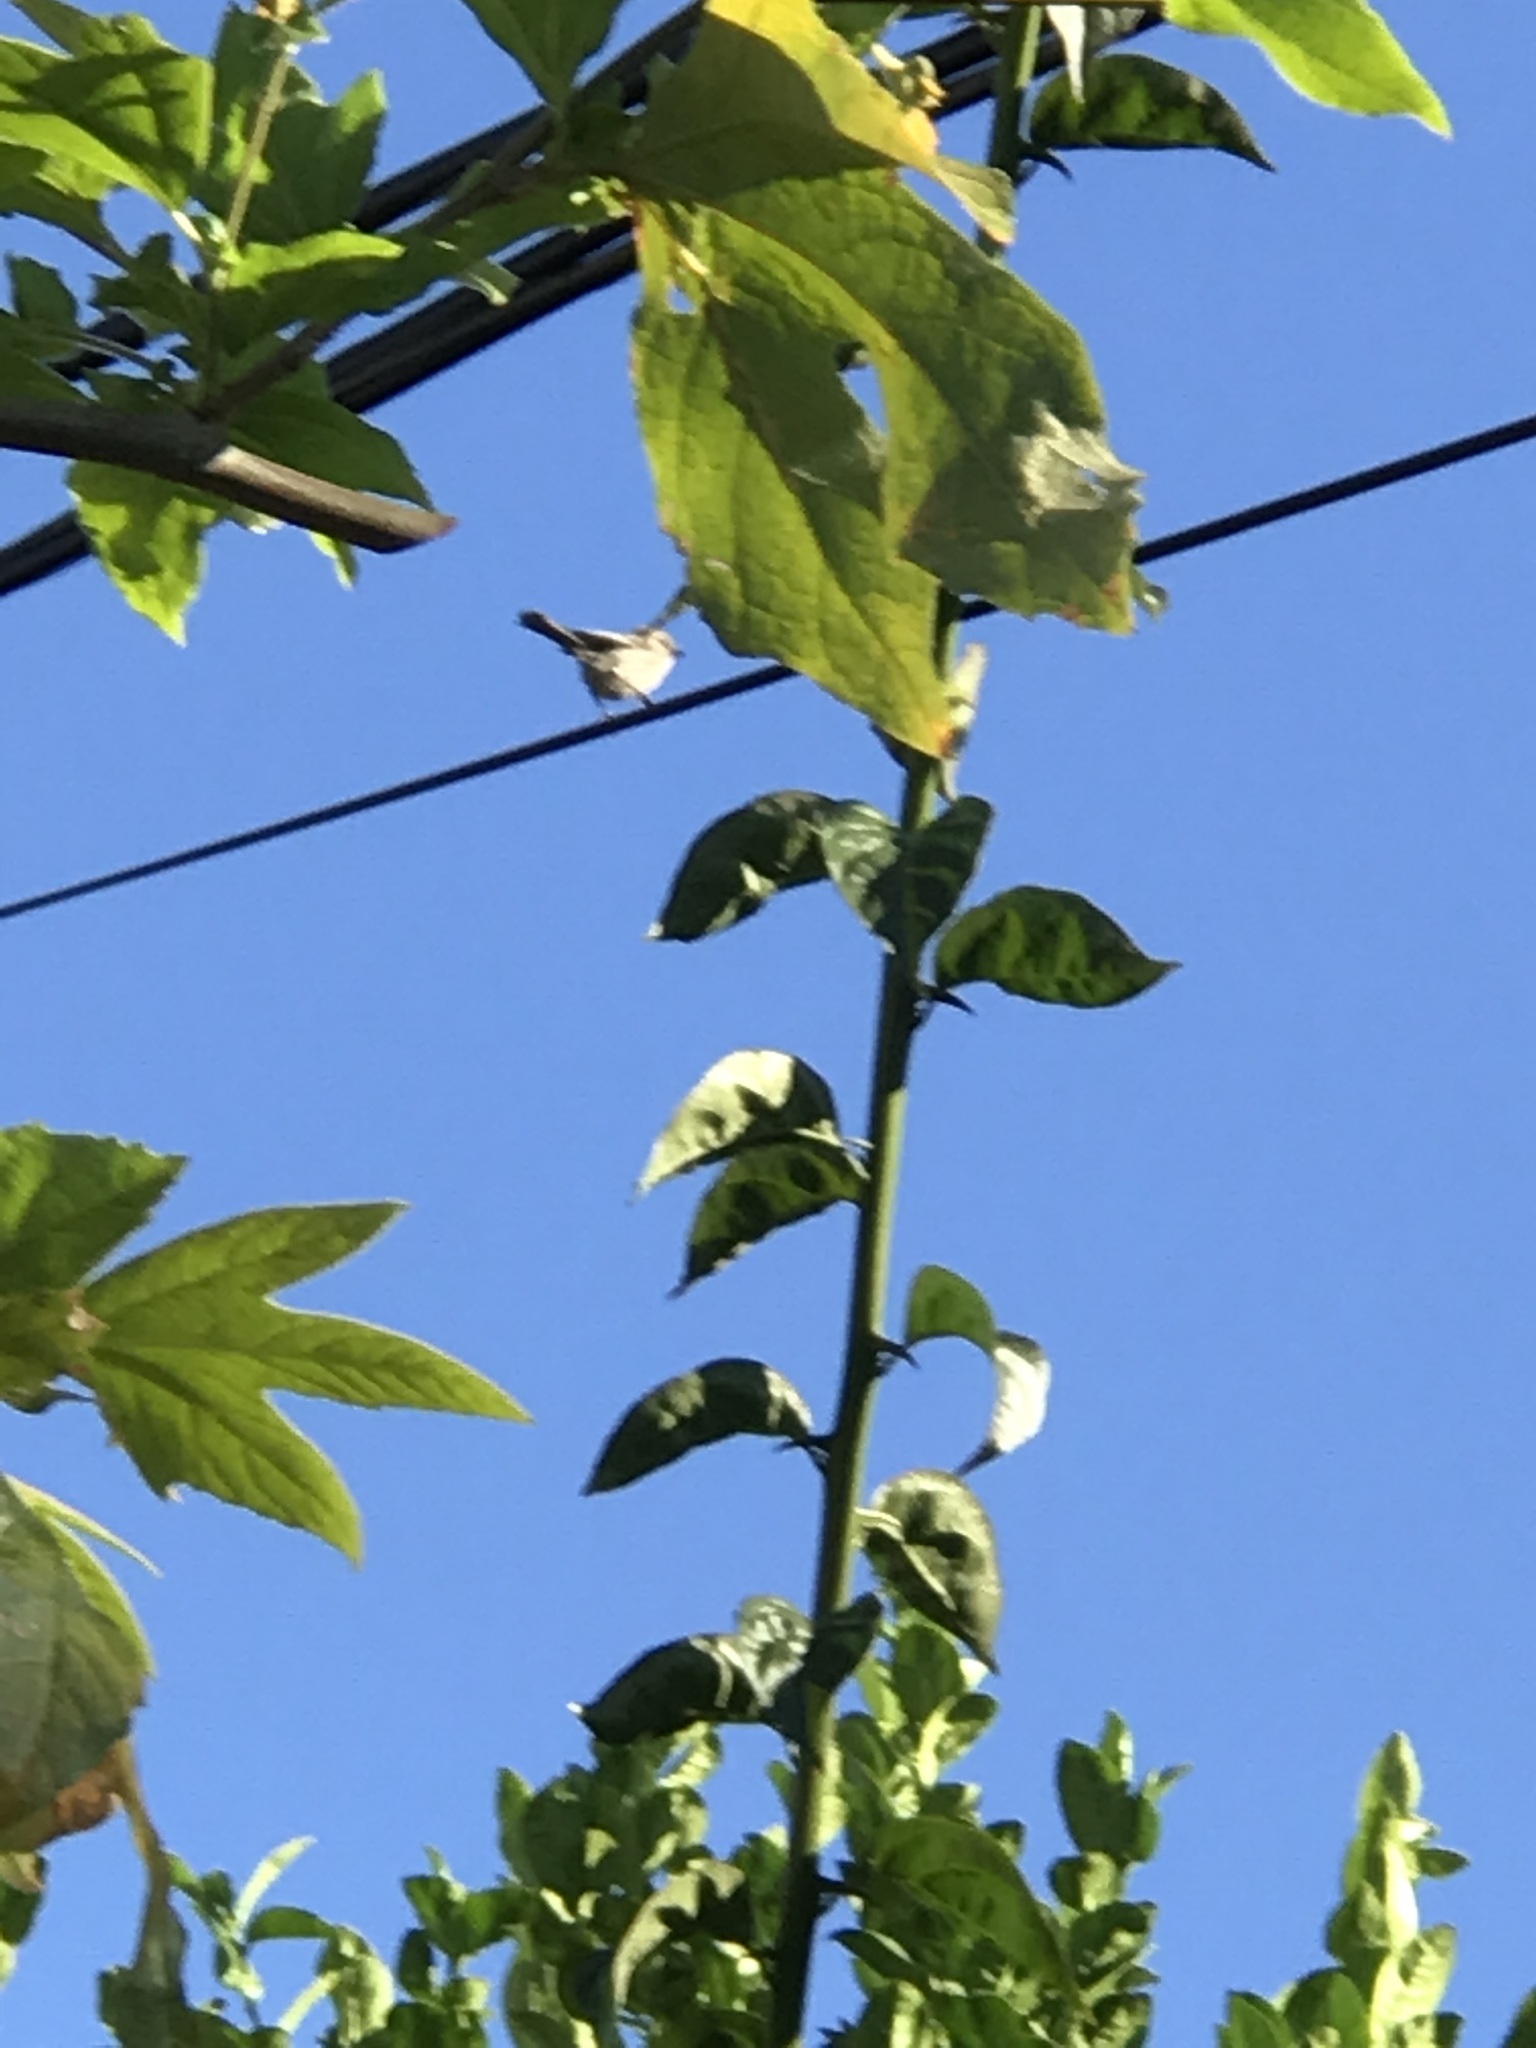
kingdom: Animalia
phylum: Chordata
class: Aves
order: Passeriformes
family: Aegithalidae
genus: Psaltriparus
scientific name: Psaltriparus minimus
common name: American bushtit
